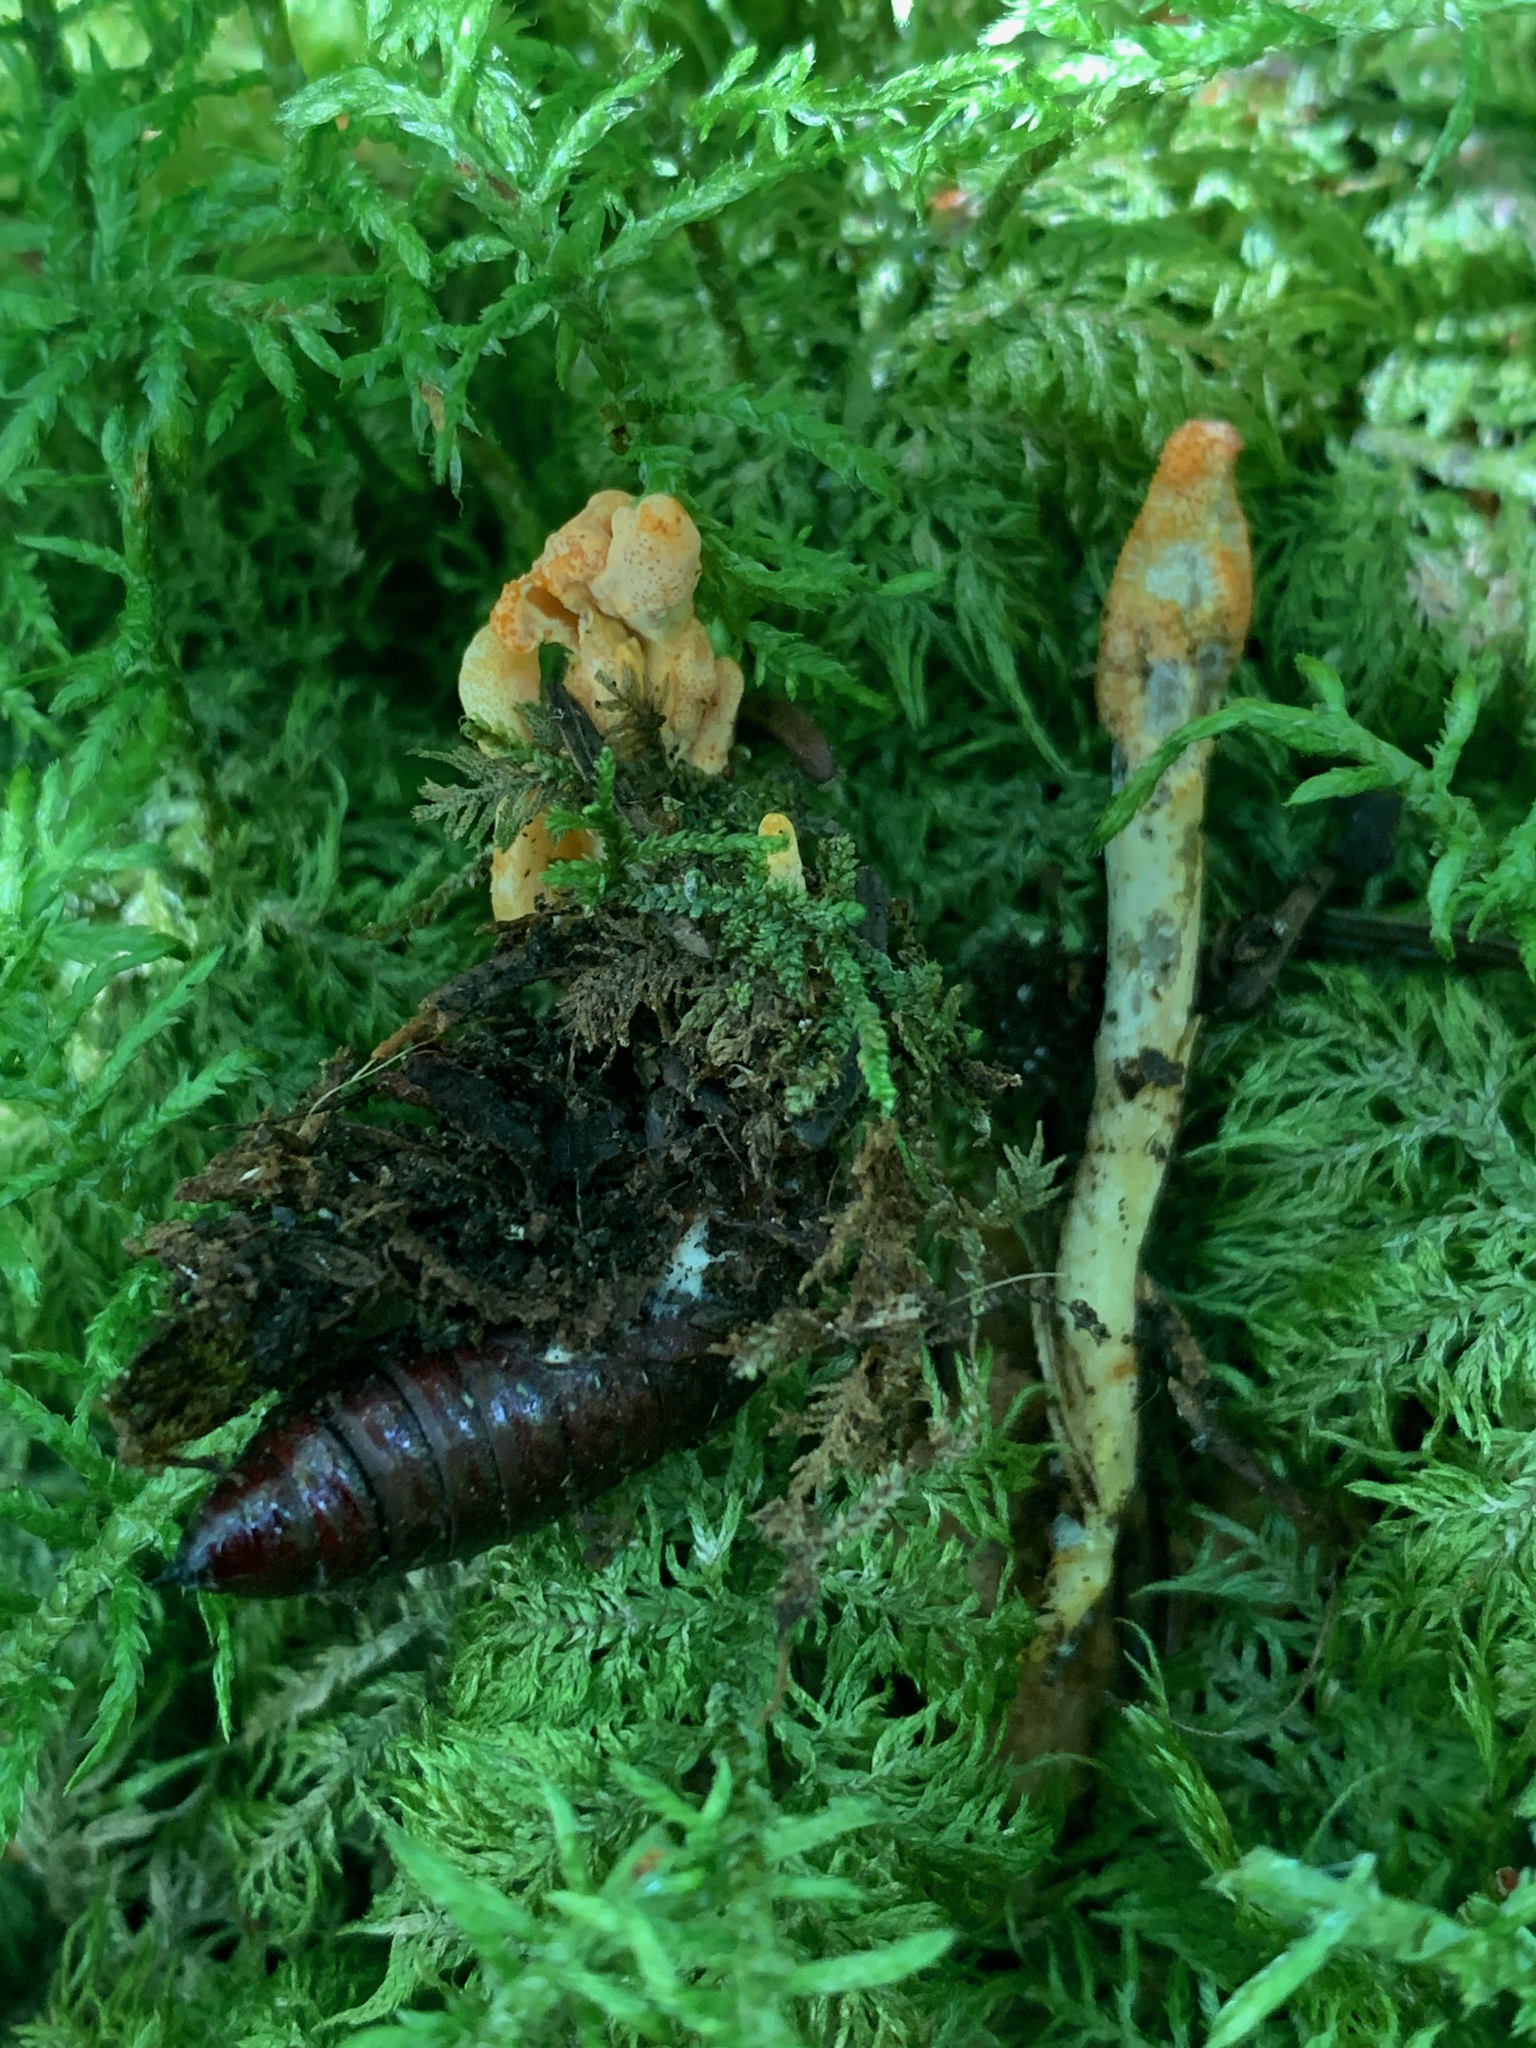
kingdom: Fungi
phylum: Ascomycota
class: Sordariomycetes
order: Hypocreales
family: Cordycipitaceae
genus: Cordyceps
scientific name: Cordyceps militaris
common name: Scarlet caterpillar fungus
